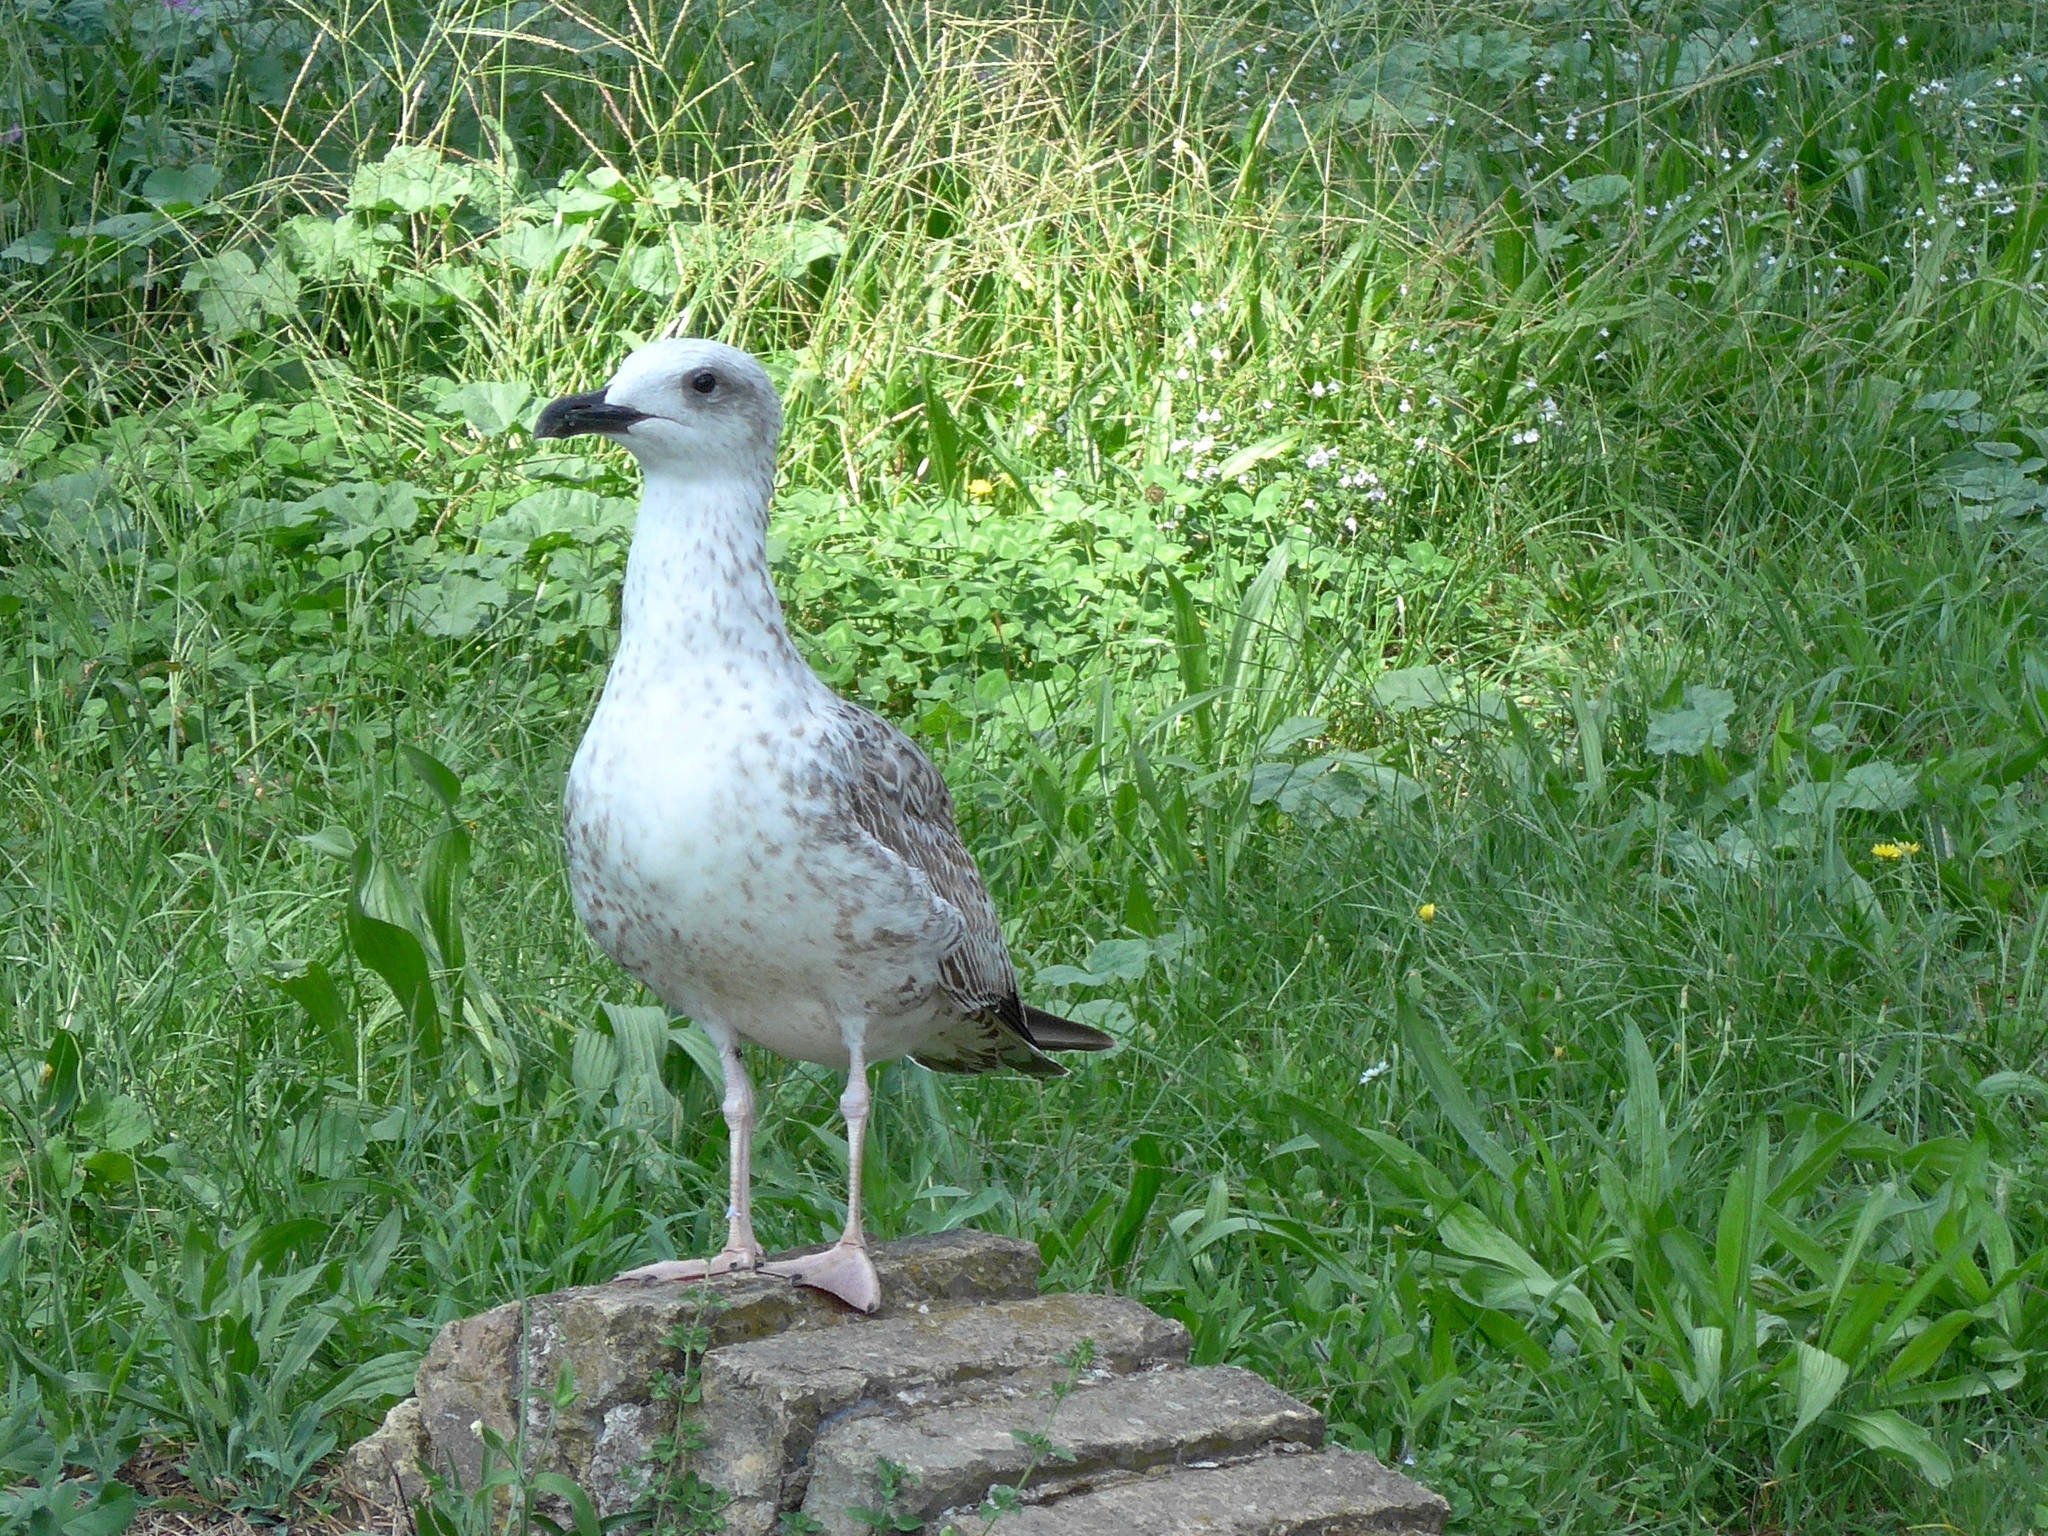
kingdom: Animalia
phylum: Chordata
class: Aves
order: Charadriiformes
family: Laridae
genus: Larus
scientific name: Larus michahellis
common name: Yellow-legged gull
